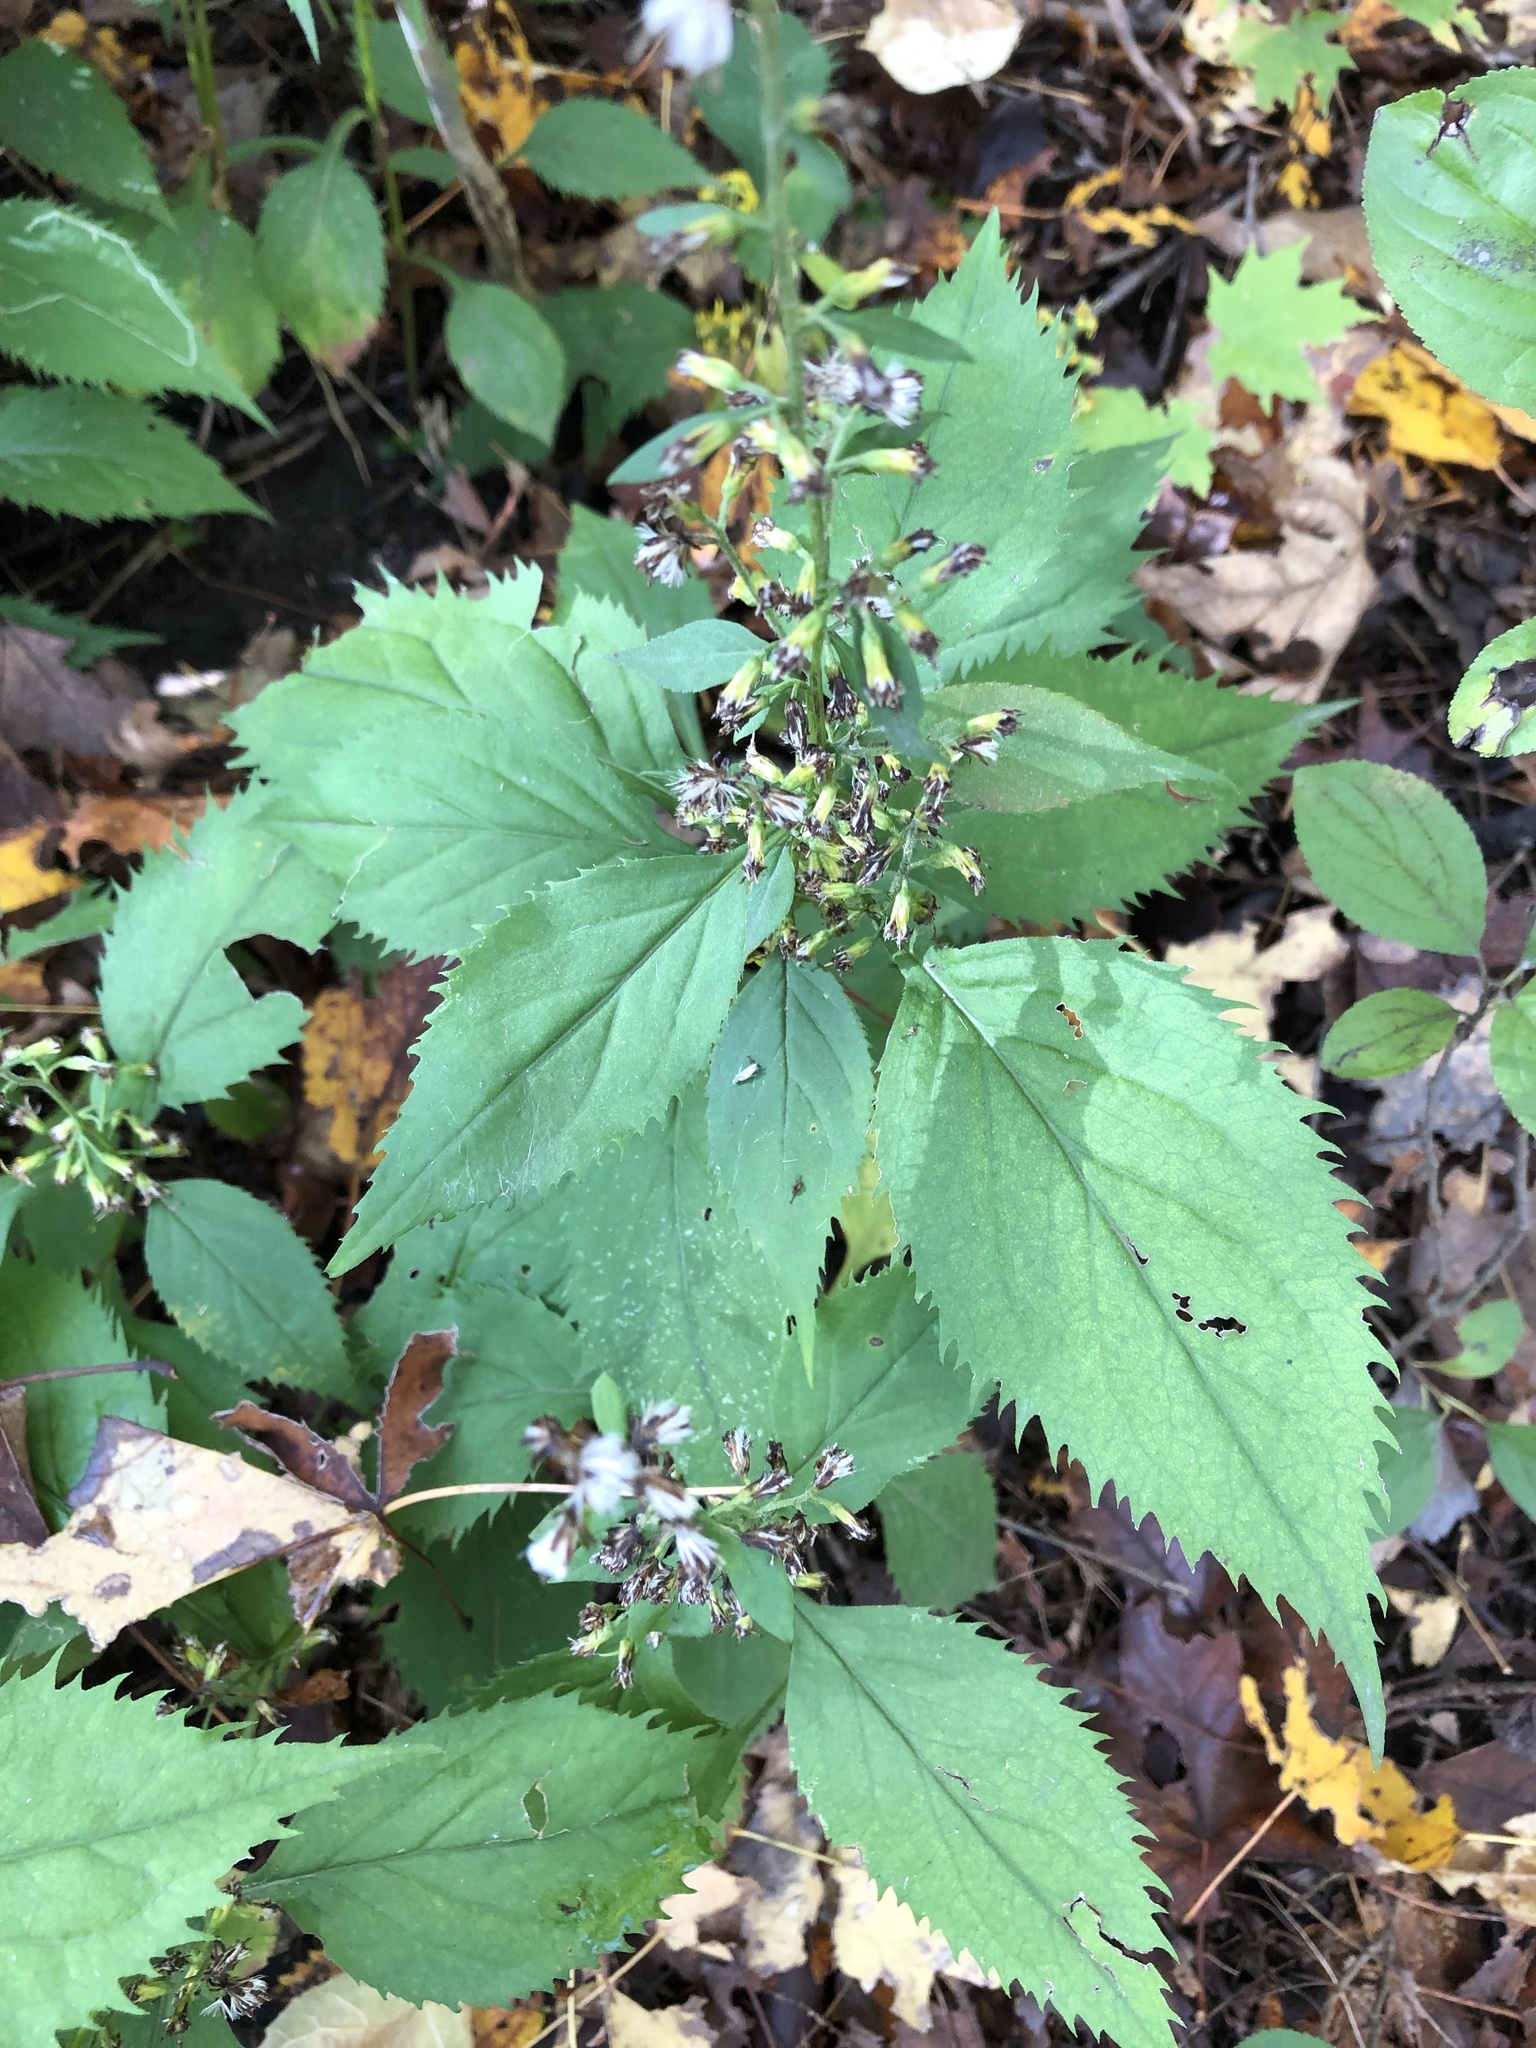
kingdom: Plantae
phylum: Tracheophyta
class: Magnoliopsida
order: Asterales
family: Asteraceae
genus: Solidago
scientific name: Solidago flexicaulis
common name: Zig-zag goldenrod
